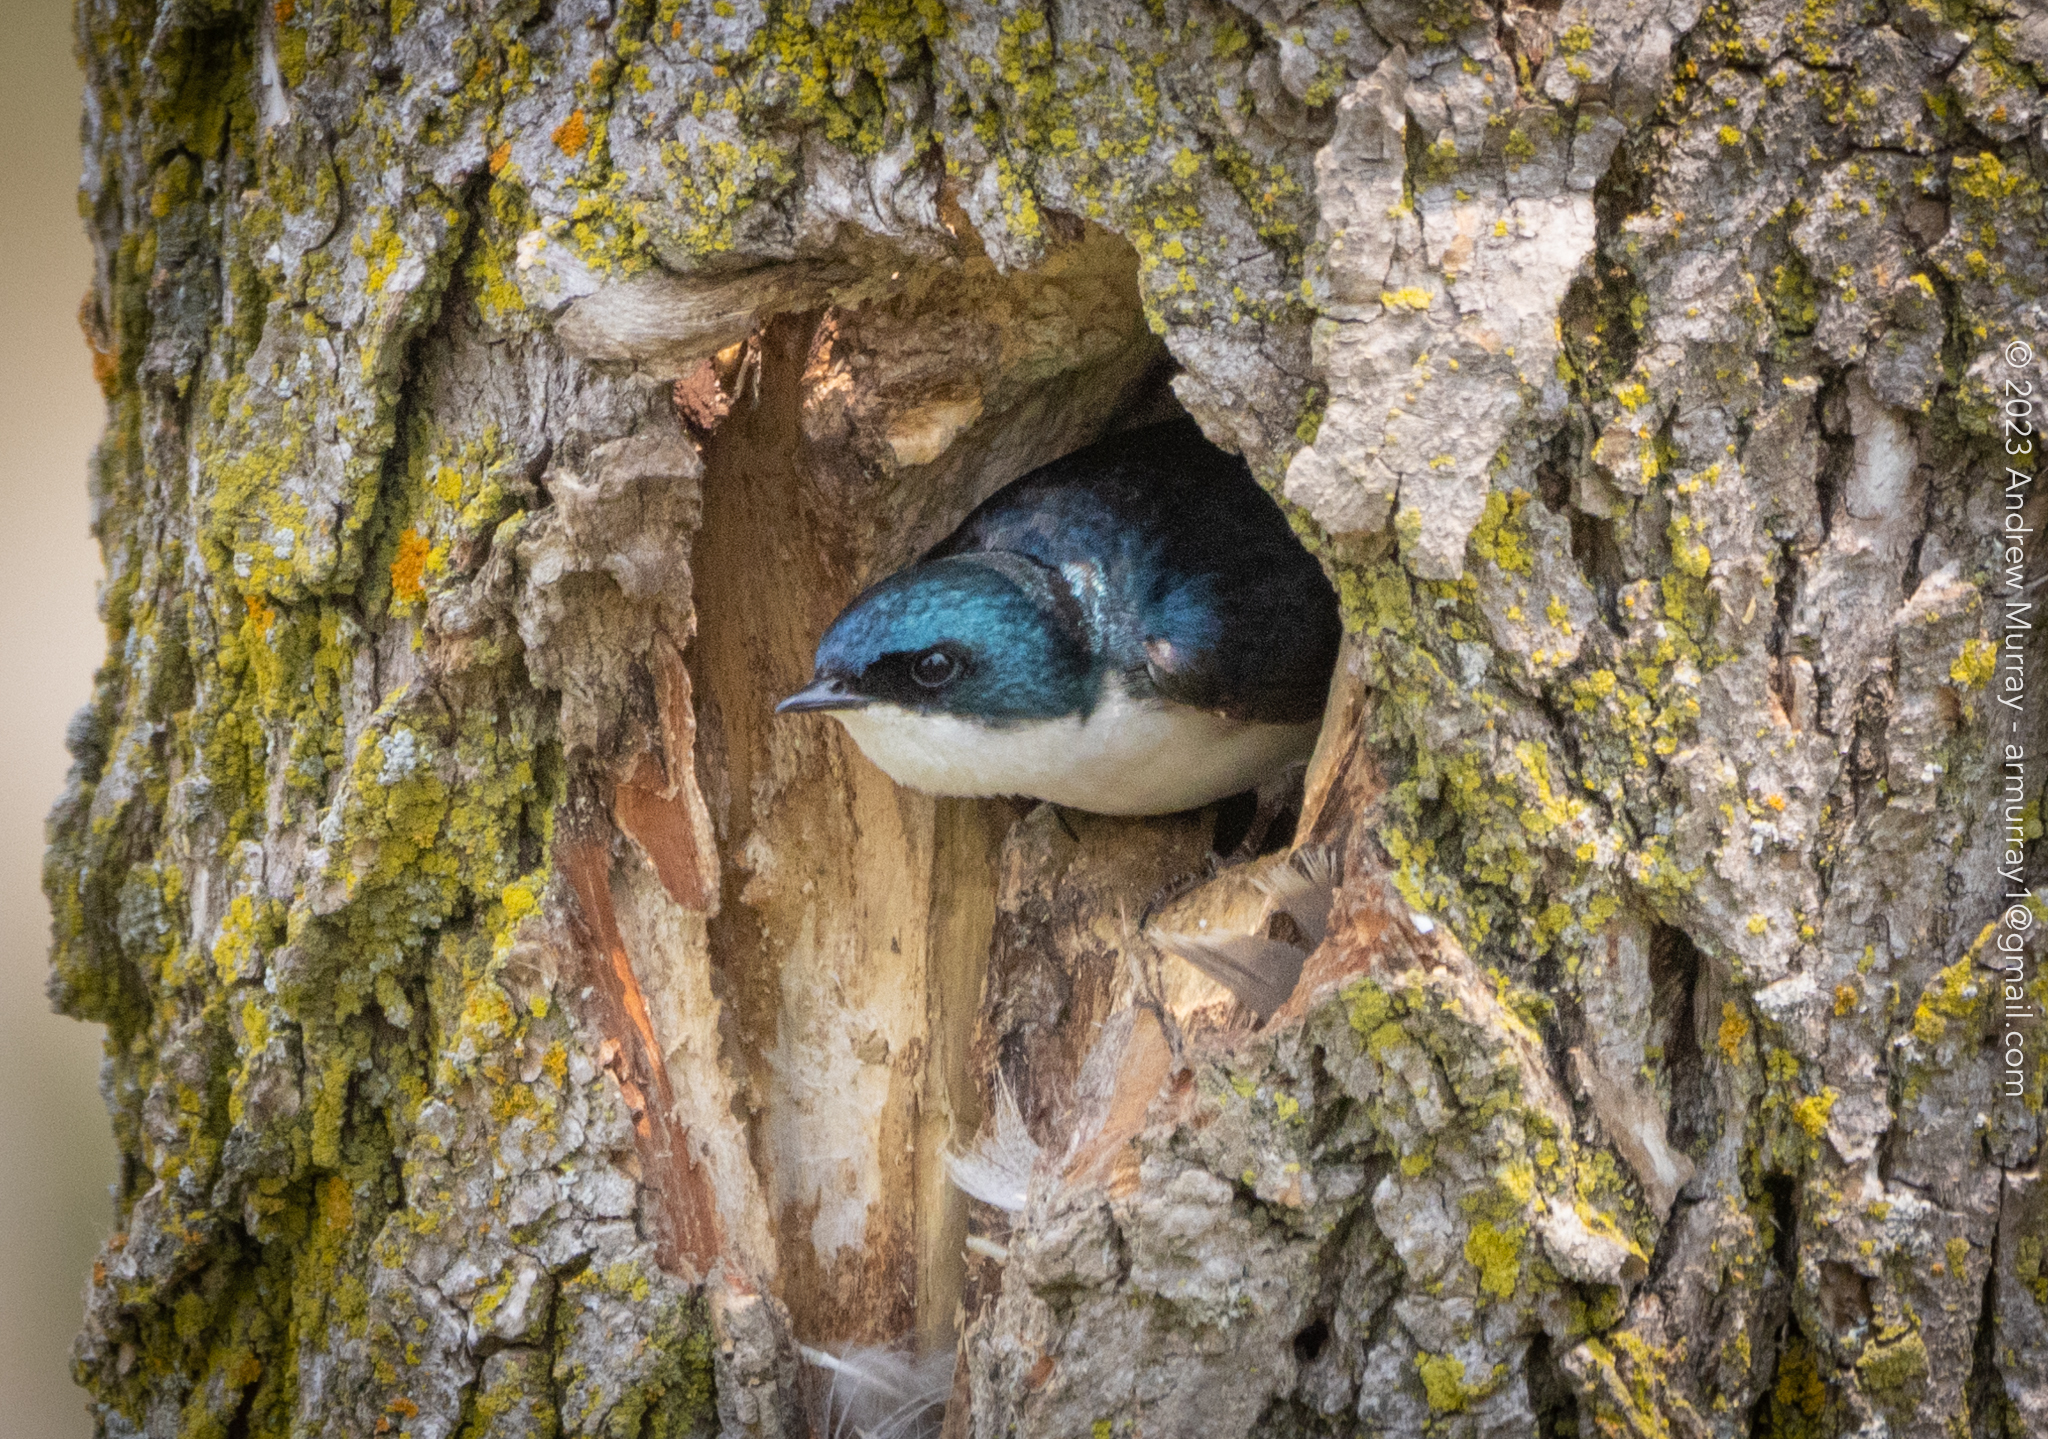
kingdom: Animalia
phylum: Chordata
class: Aves
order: Passeriformes
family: Hirundinidae
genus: Tachycineta
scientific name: Tachycineta bicolor
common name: Tree swallow
